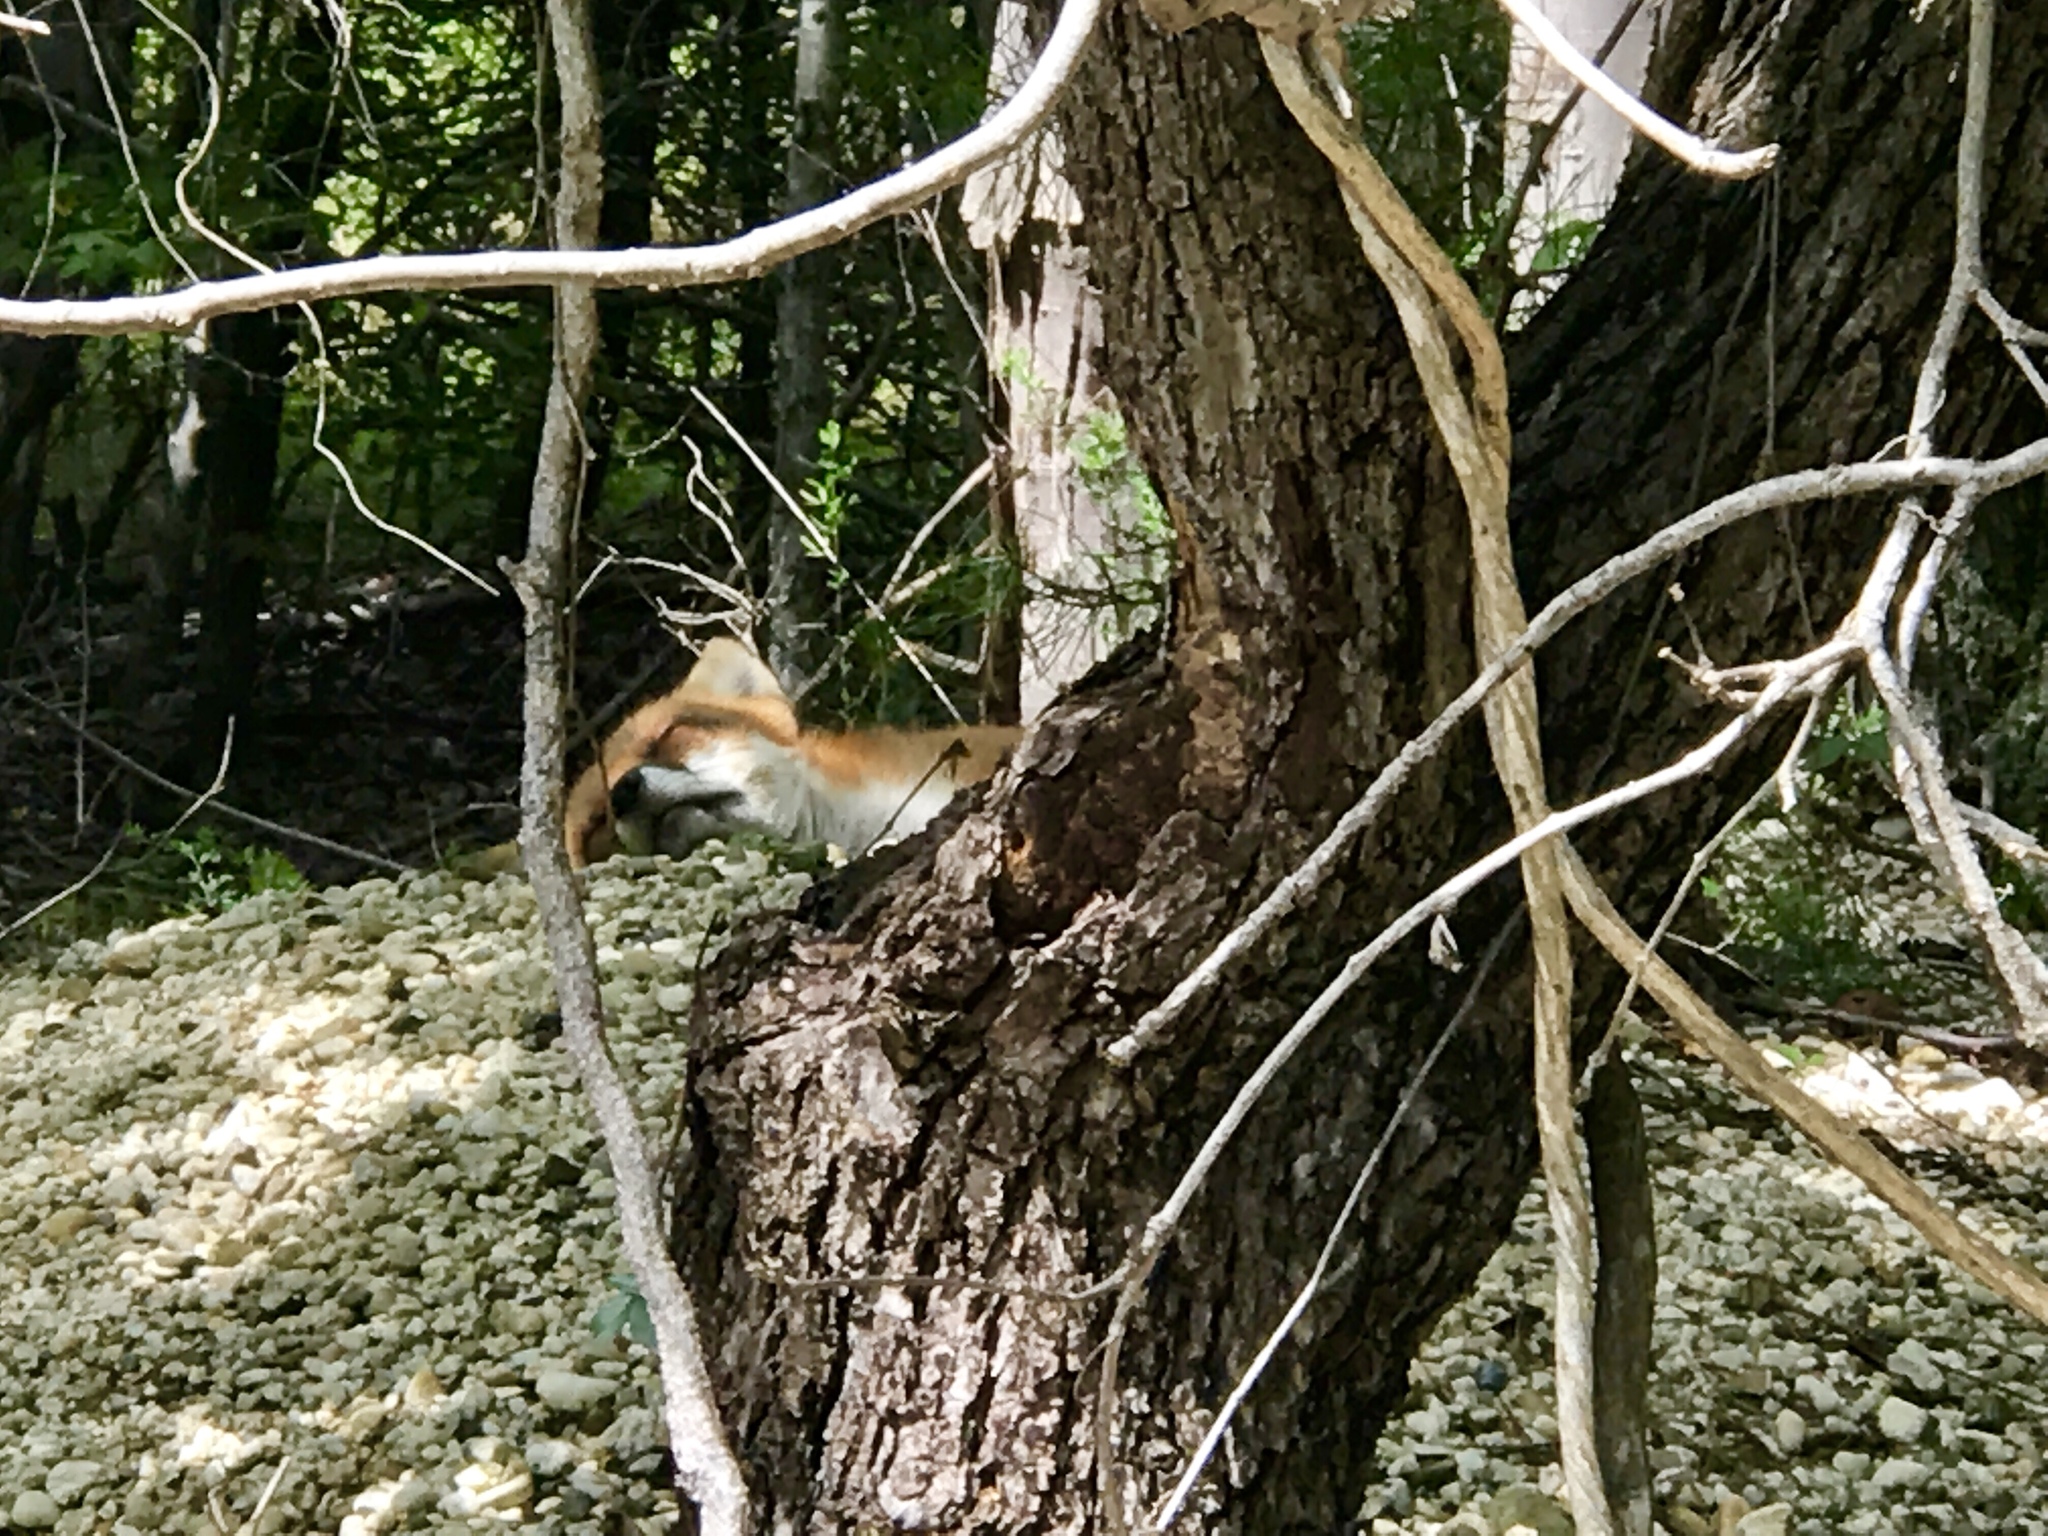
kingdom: Animalia
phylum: Chordata
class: Mammalia
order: Carnivora
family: Canidae
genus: Vulpes
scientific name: Vulpes vulpes
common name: Red fox
